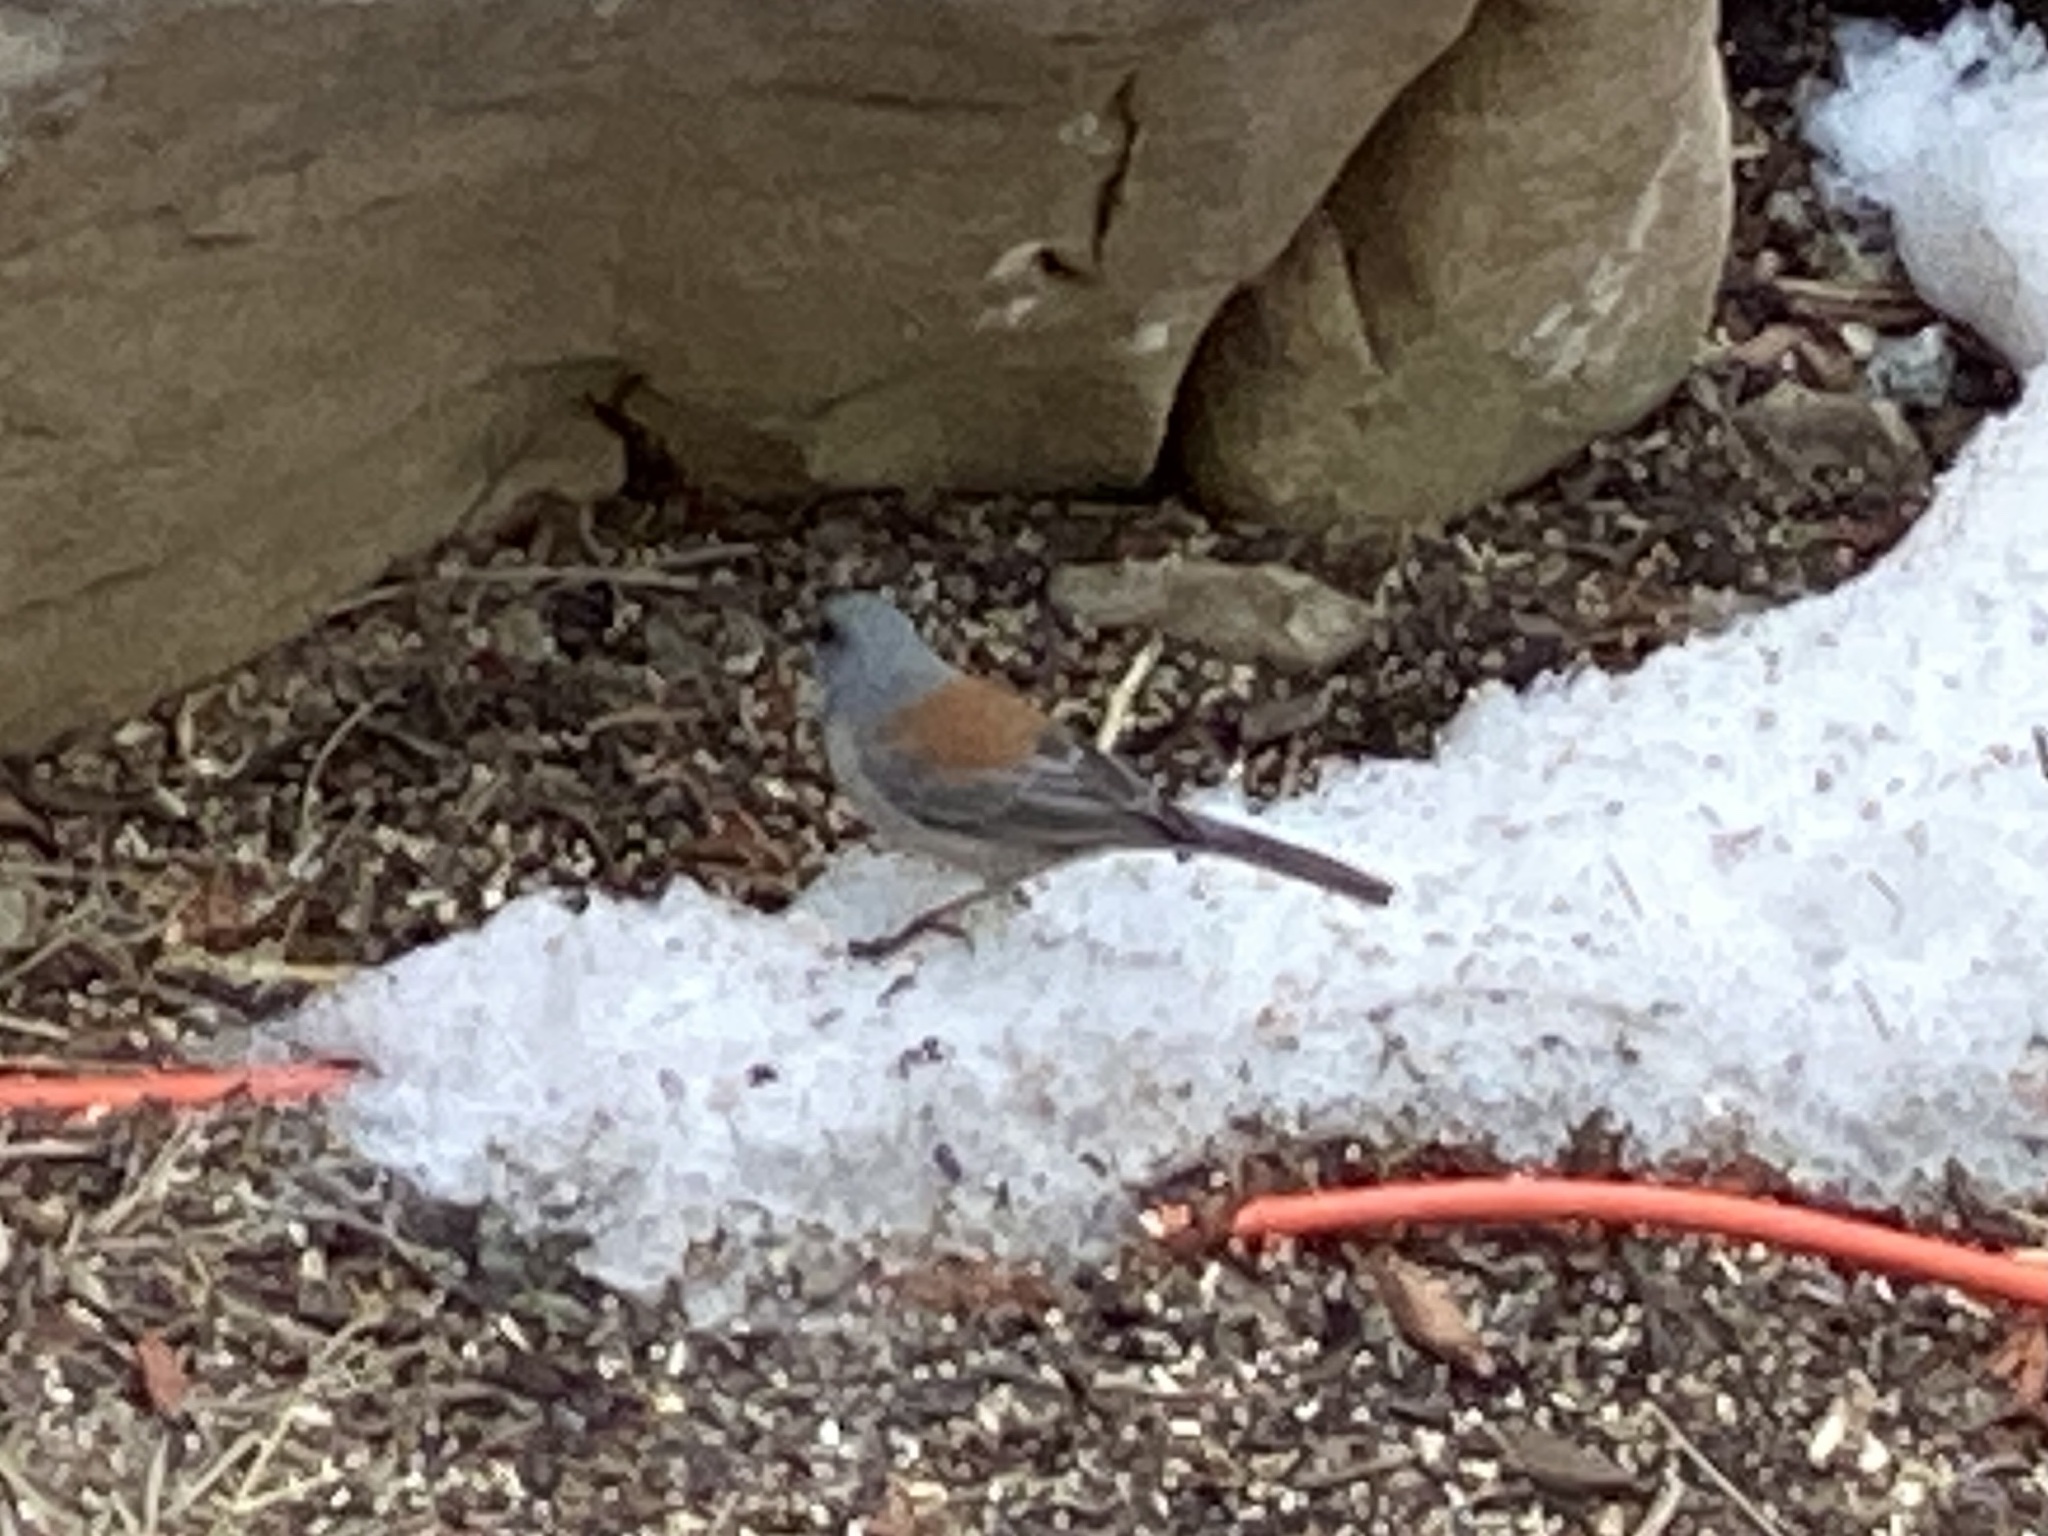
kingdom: Animalia
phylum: Chordata
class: Aves
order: Passeriformes
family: Passerellidae
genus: Junco
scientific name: Junco hyemalis
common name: Dark-eyed junco
